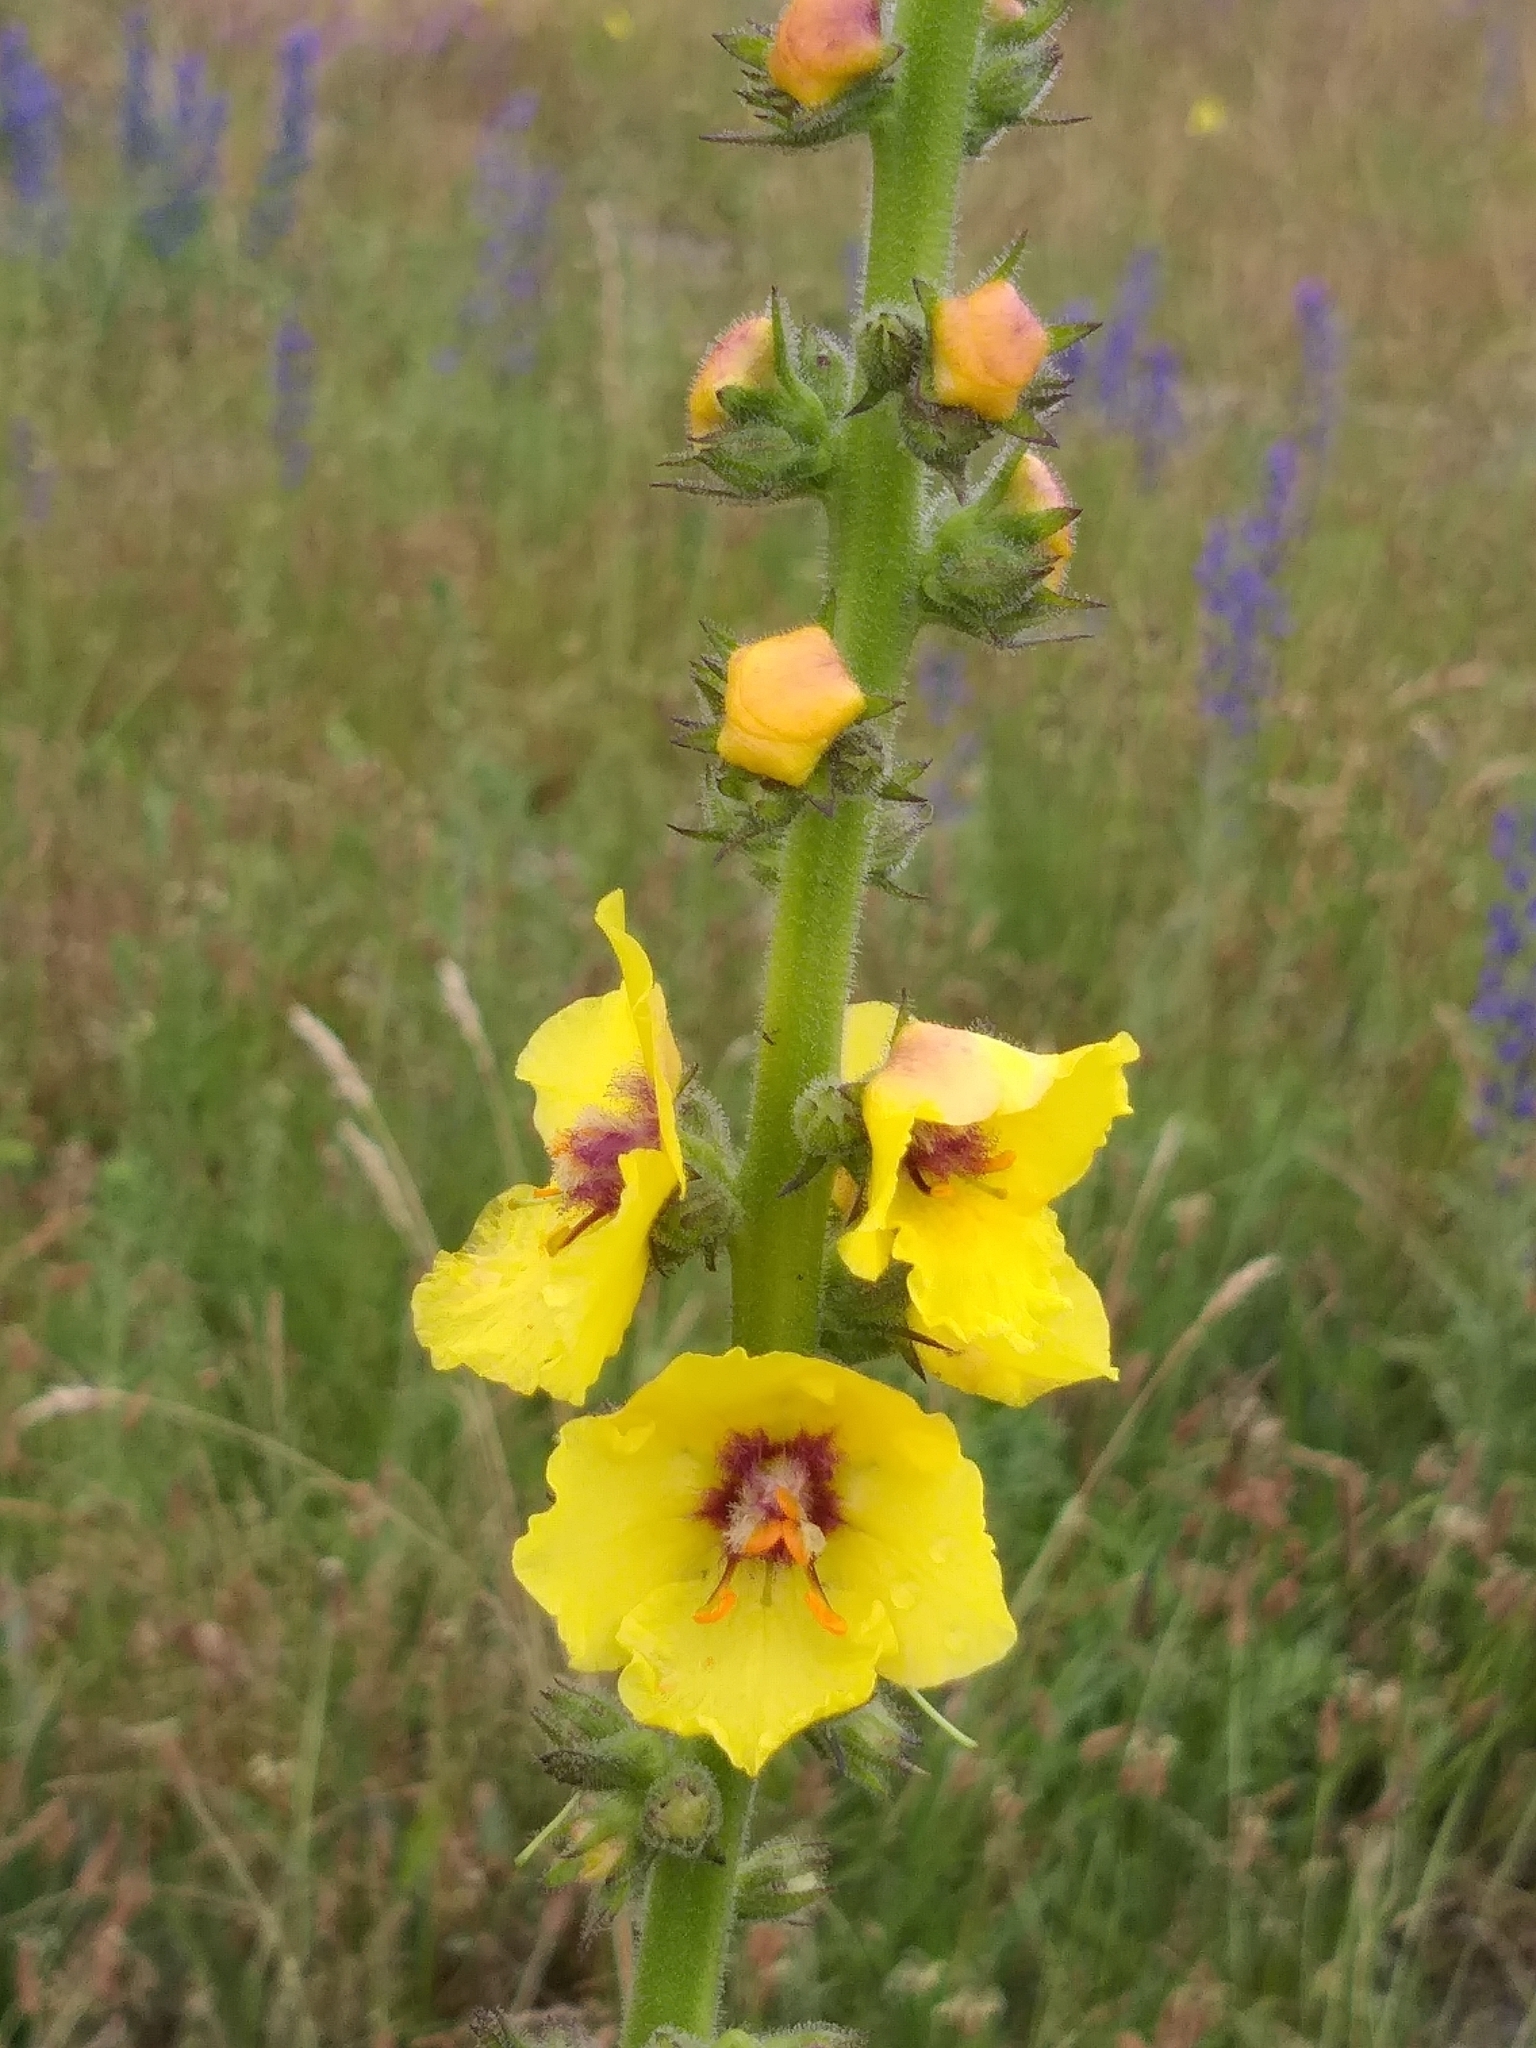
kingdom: Plantae
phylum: Tracheophyta
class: Magnoliopsida
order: Lamiales
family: Scrophulariaceae
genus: Verbascum
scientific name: Verbascum virgatum
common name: Twiggy mullein
